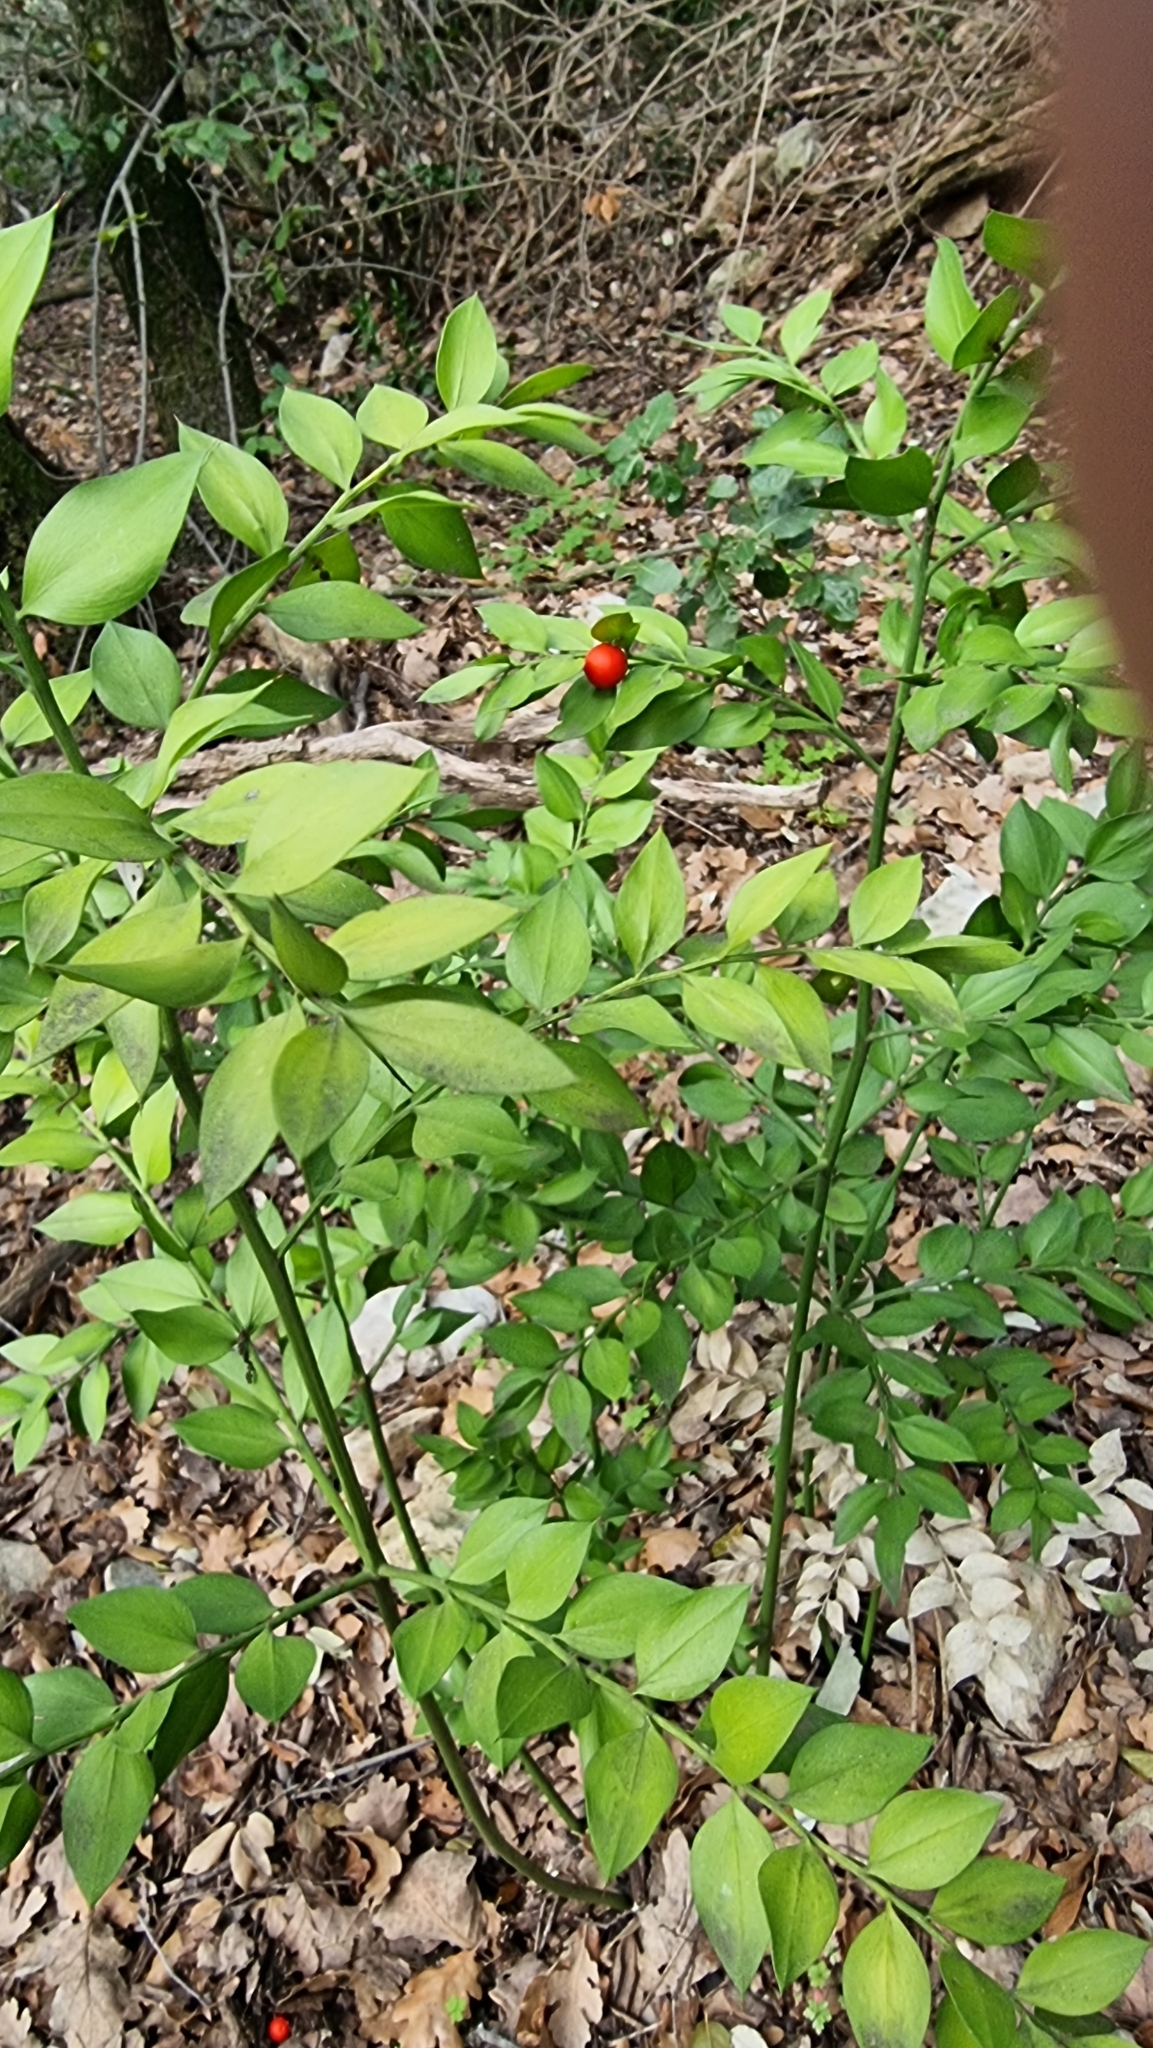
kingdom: Plantae
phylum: Tracheophyta
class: Liliopsida
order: Asparagales
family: Asparagaceae
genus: Ruscus
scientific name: Ruscus aculeatus
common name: Butcher's-broom
